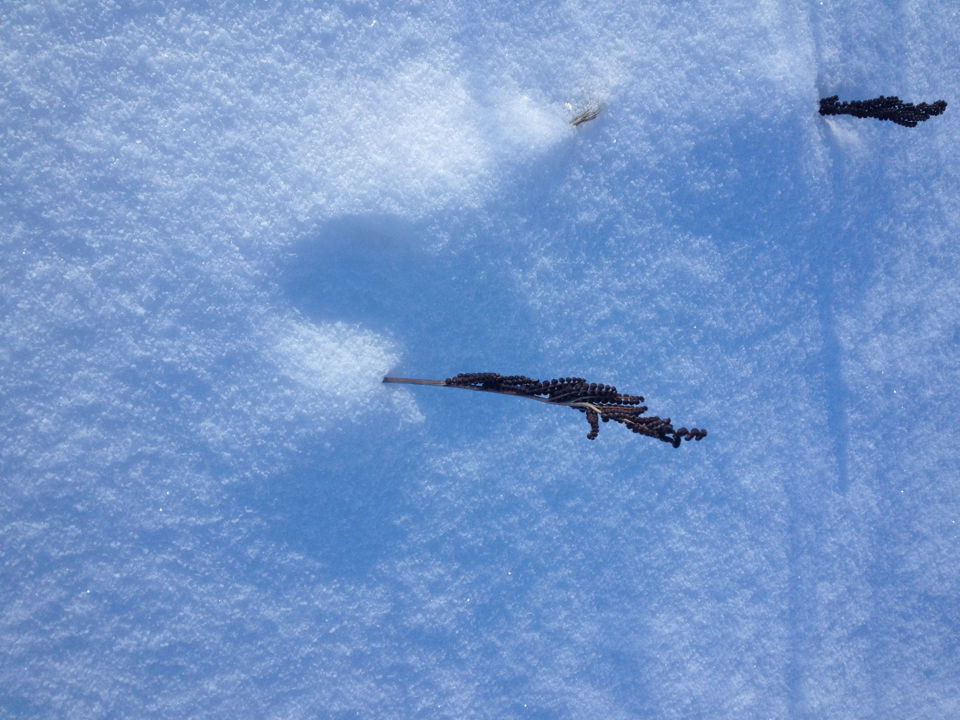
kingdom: Plantae
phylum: Tracheophyta
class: Polypodiopsida
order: Polypodiales
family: Onocleaceae
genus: Onoclea
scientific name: Onoclea sensibilis
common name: Sensitive fern
